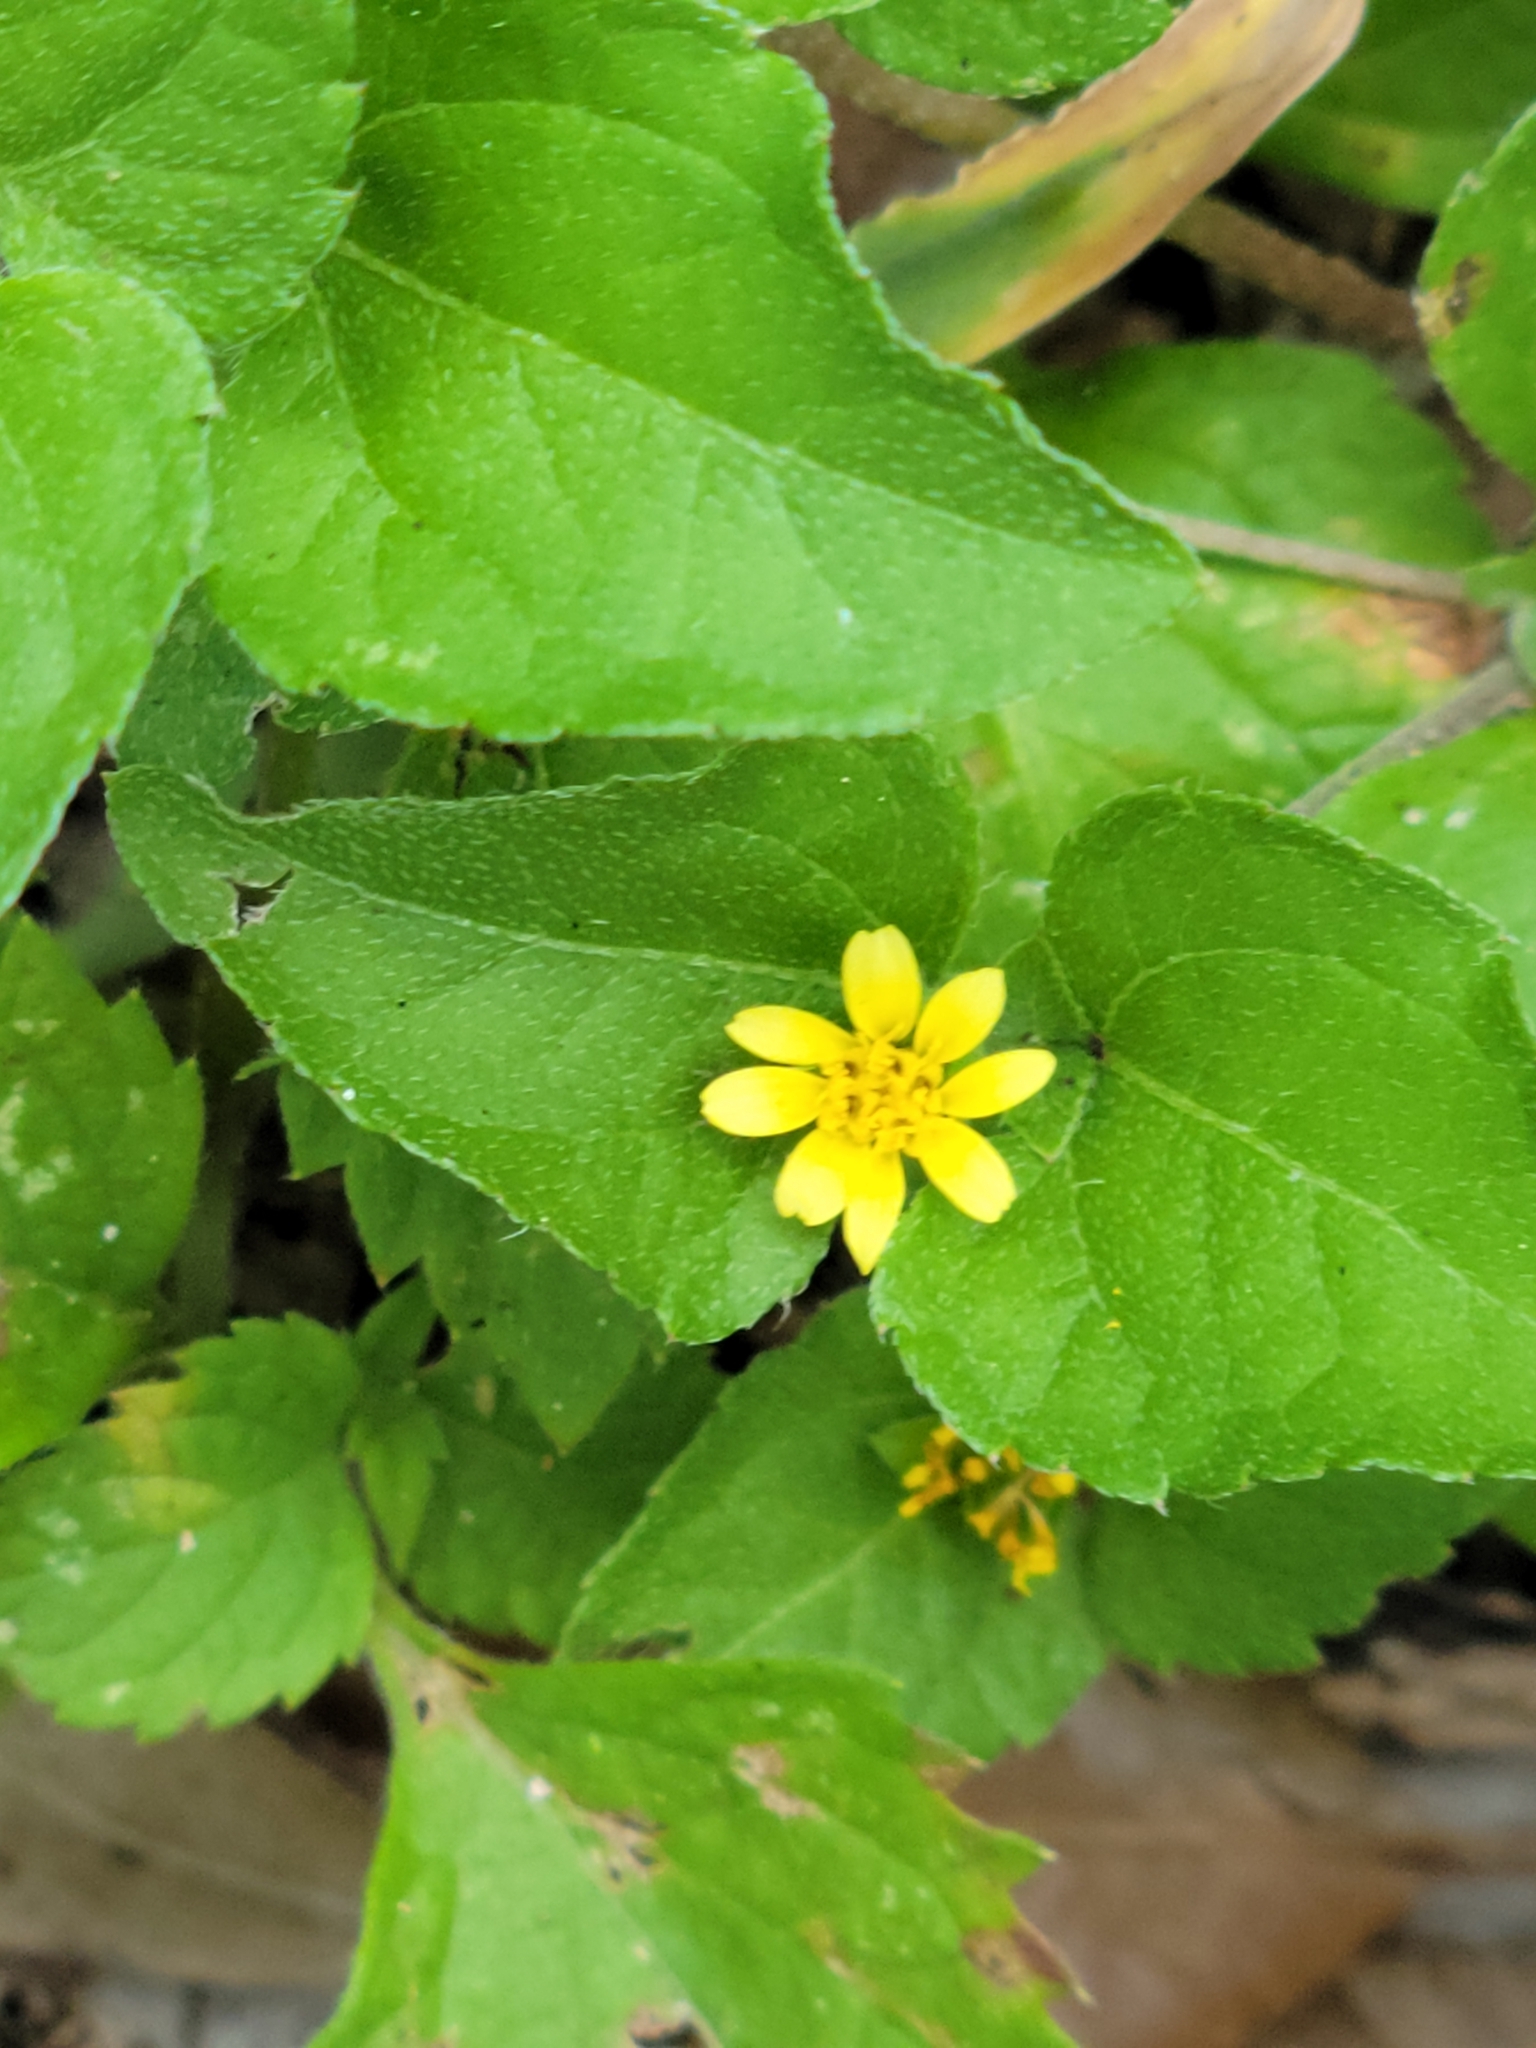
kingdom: Plantae
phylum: Tracheophyta
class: Magnoliopsida
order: Asterales
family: Asteraceae
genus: Calyptocarpus
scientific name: Calyptocarpus vialis
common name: Straggler daisy
